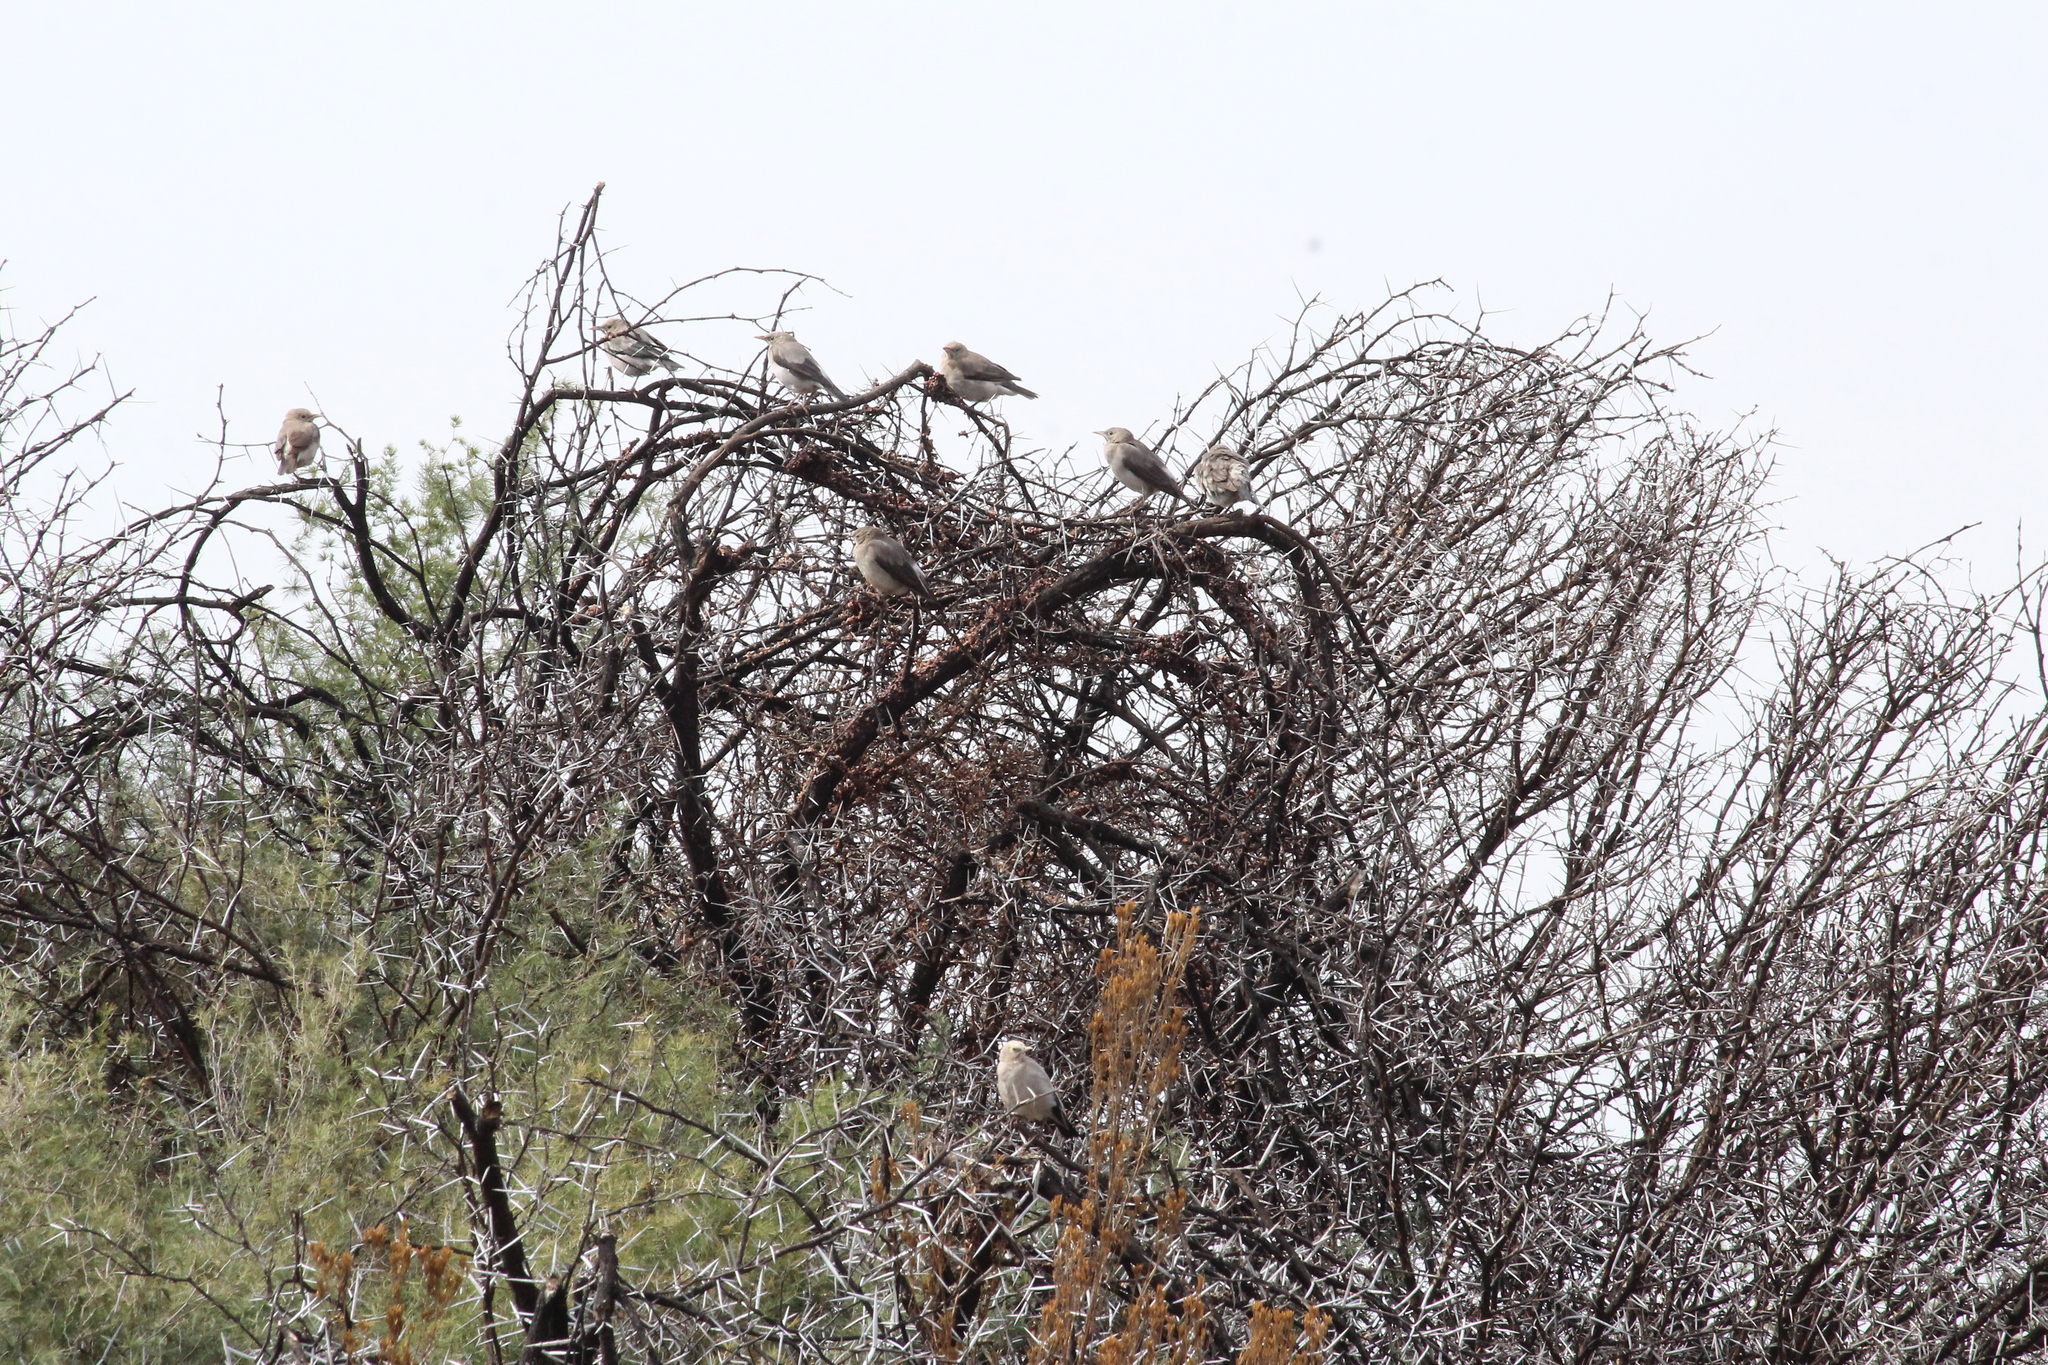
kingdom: Animalia
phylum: Chordata
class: Aves
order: Passeriformes
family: Sturnidae
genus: Creatophora
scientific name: Creatophora cinerea
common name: Wattled starling
